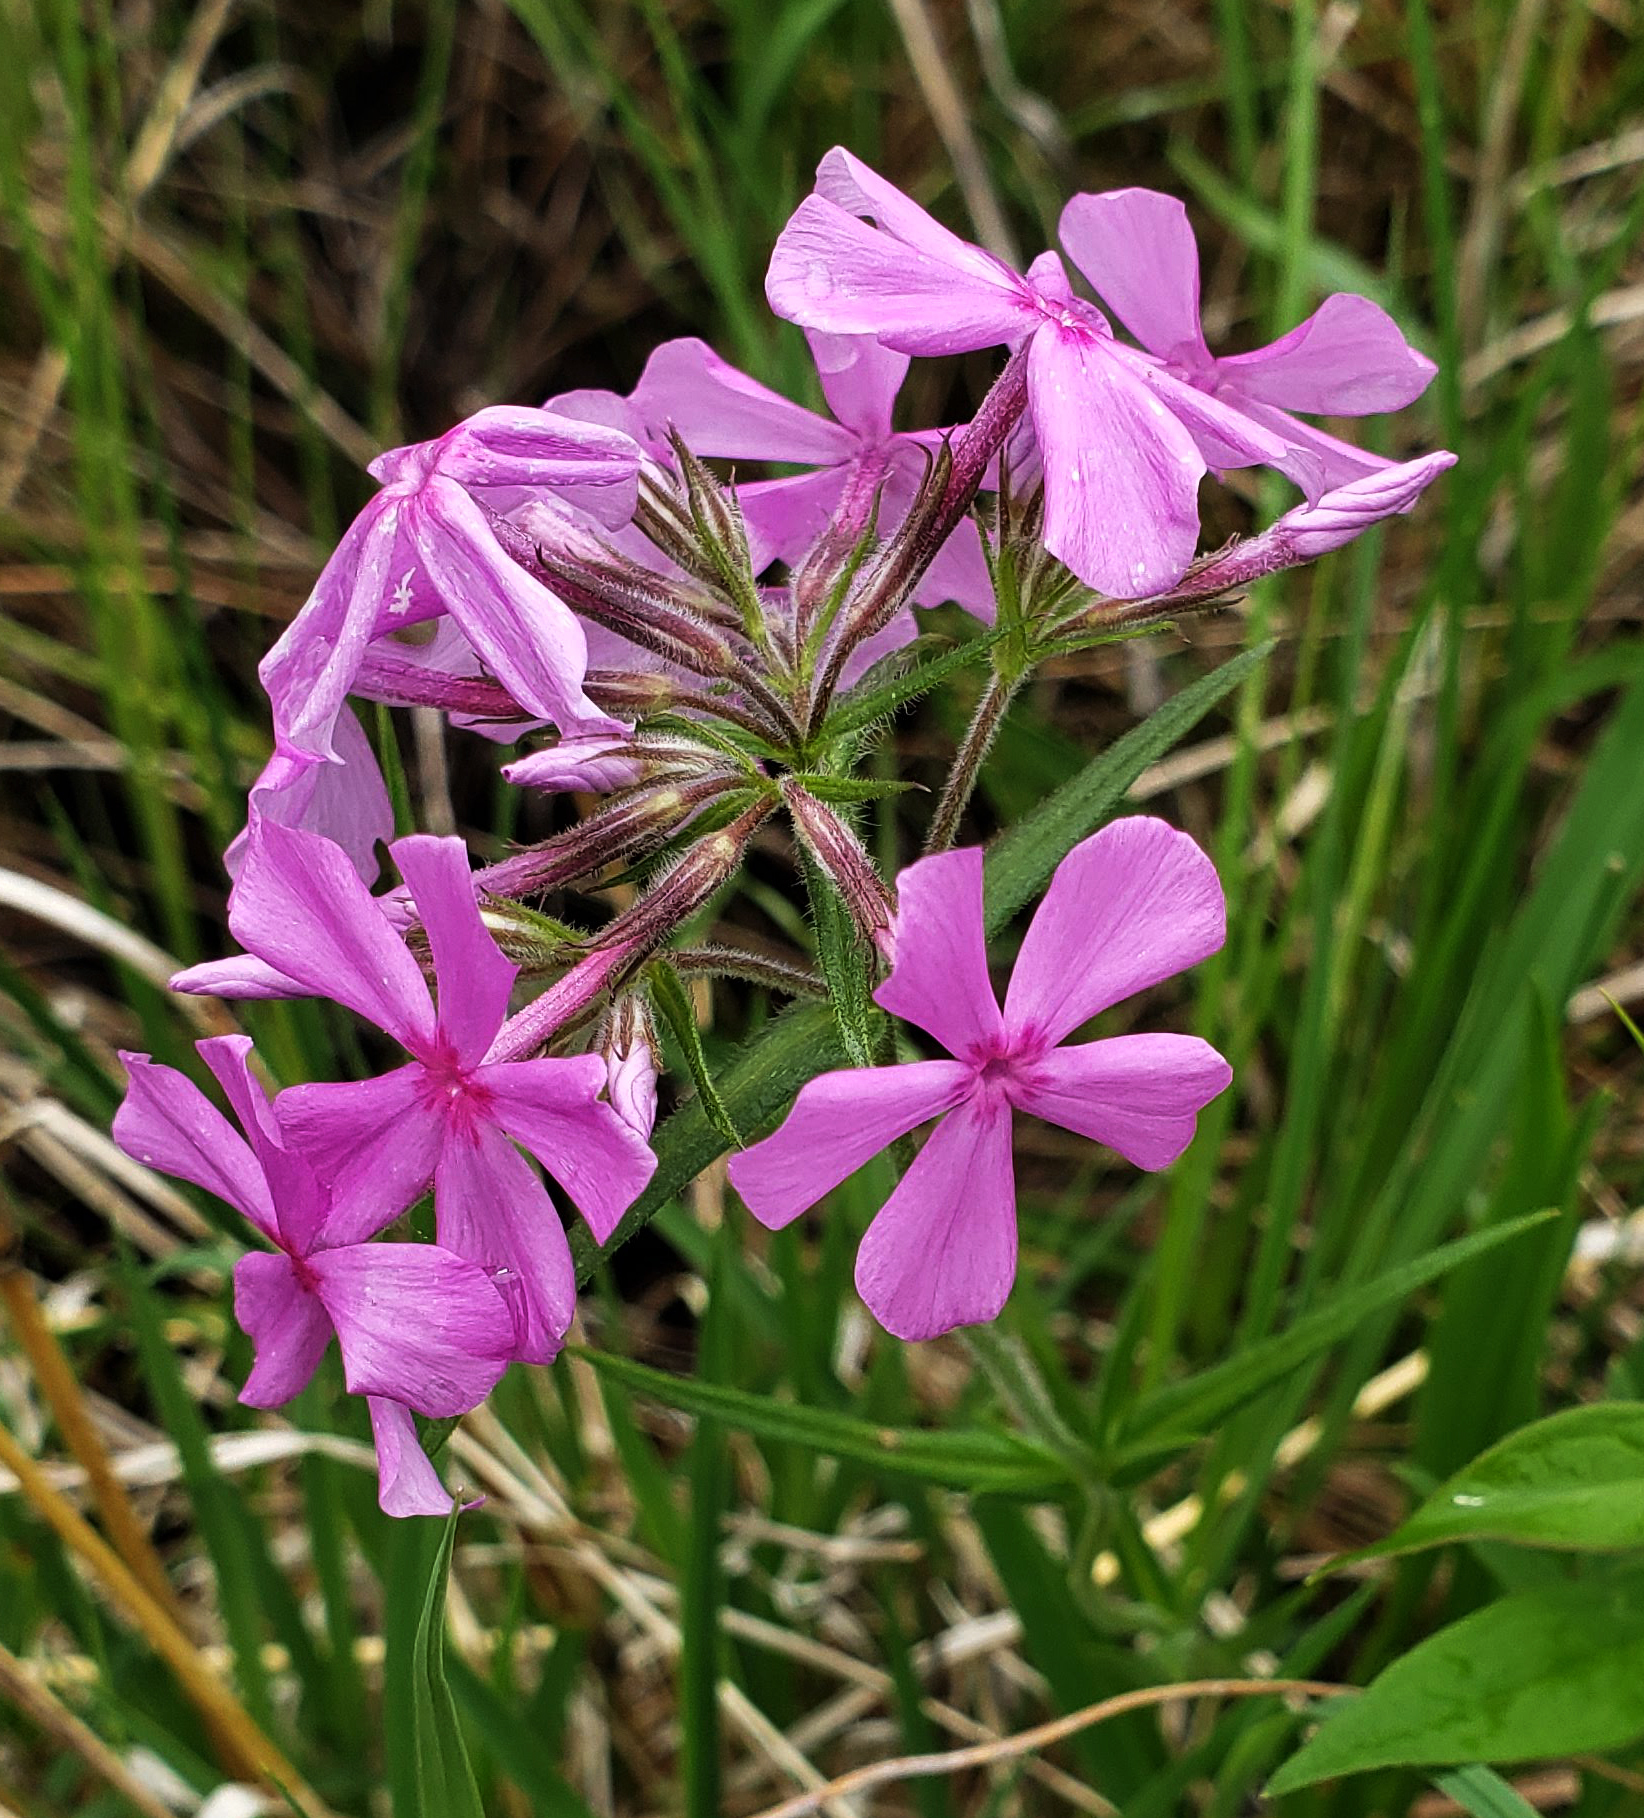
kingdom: Plantae
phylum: Tracheophyta
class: Magnoliopsida
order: Ericales
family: Polemoniaceae
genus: Phlox
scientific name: Phlox pilosa
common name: Prairie phlox
